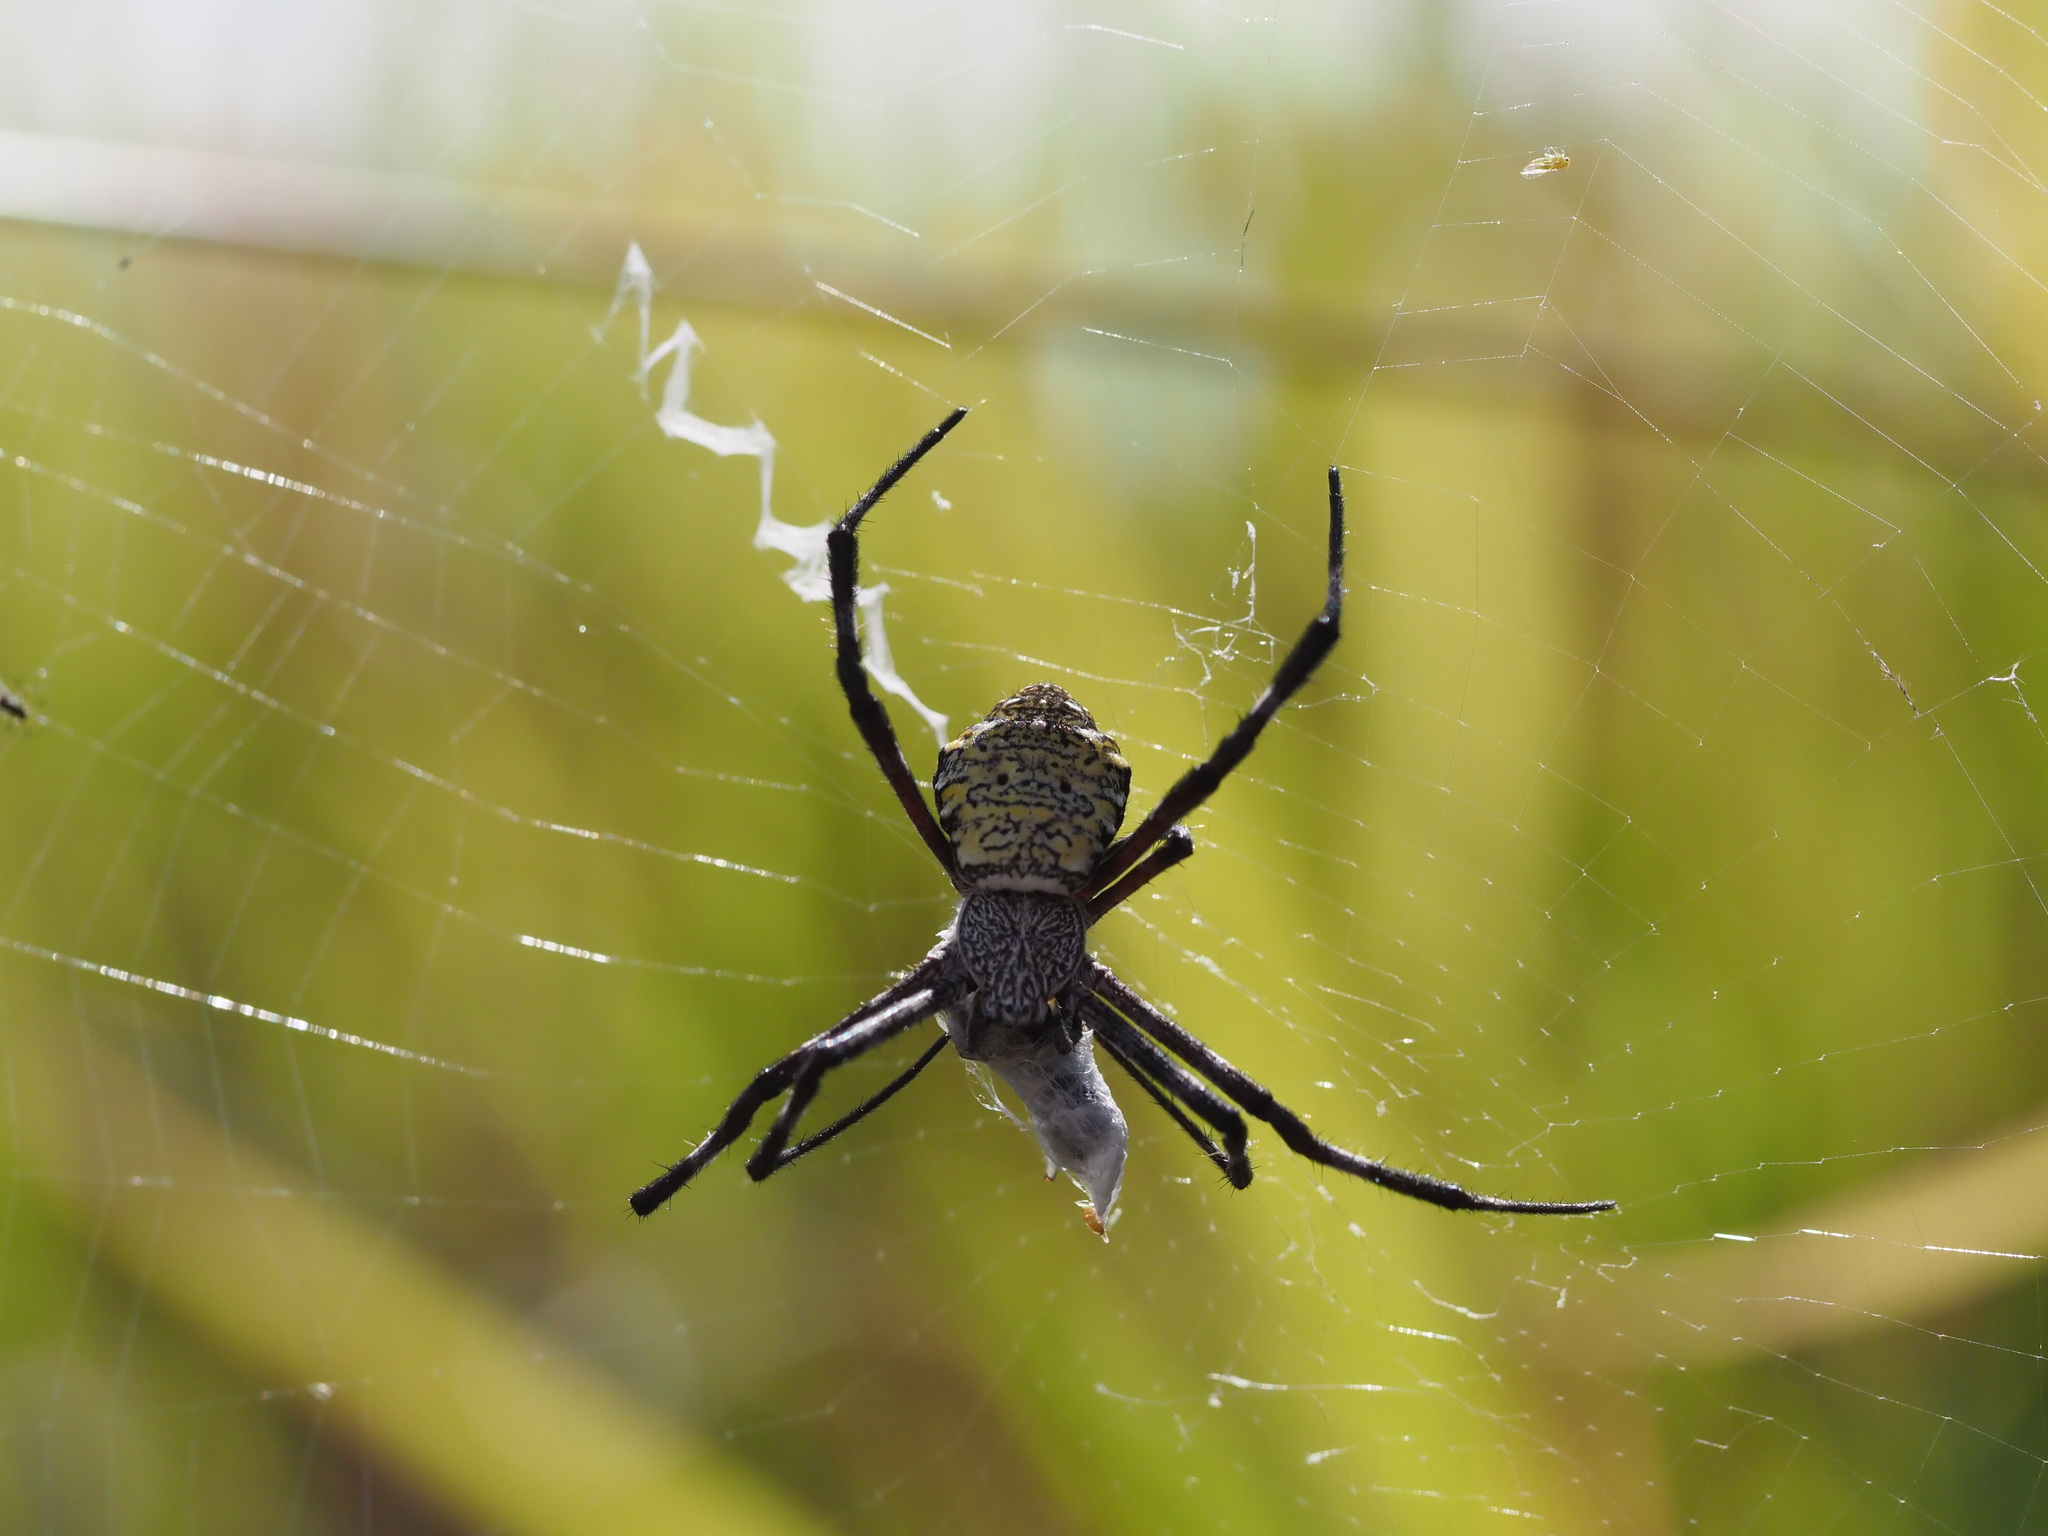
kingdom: Animalia
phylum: Arthropoda
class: Arachnida
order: Araneae
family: Araneidae
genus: Argiope
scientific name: Argiope appensa
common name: Garden spider
